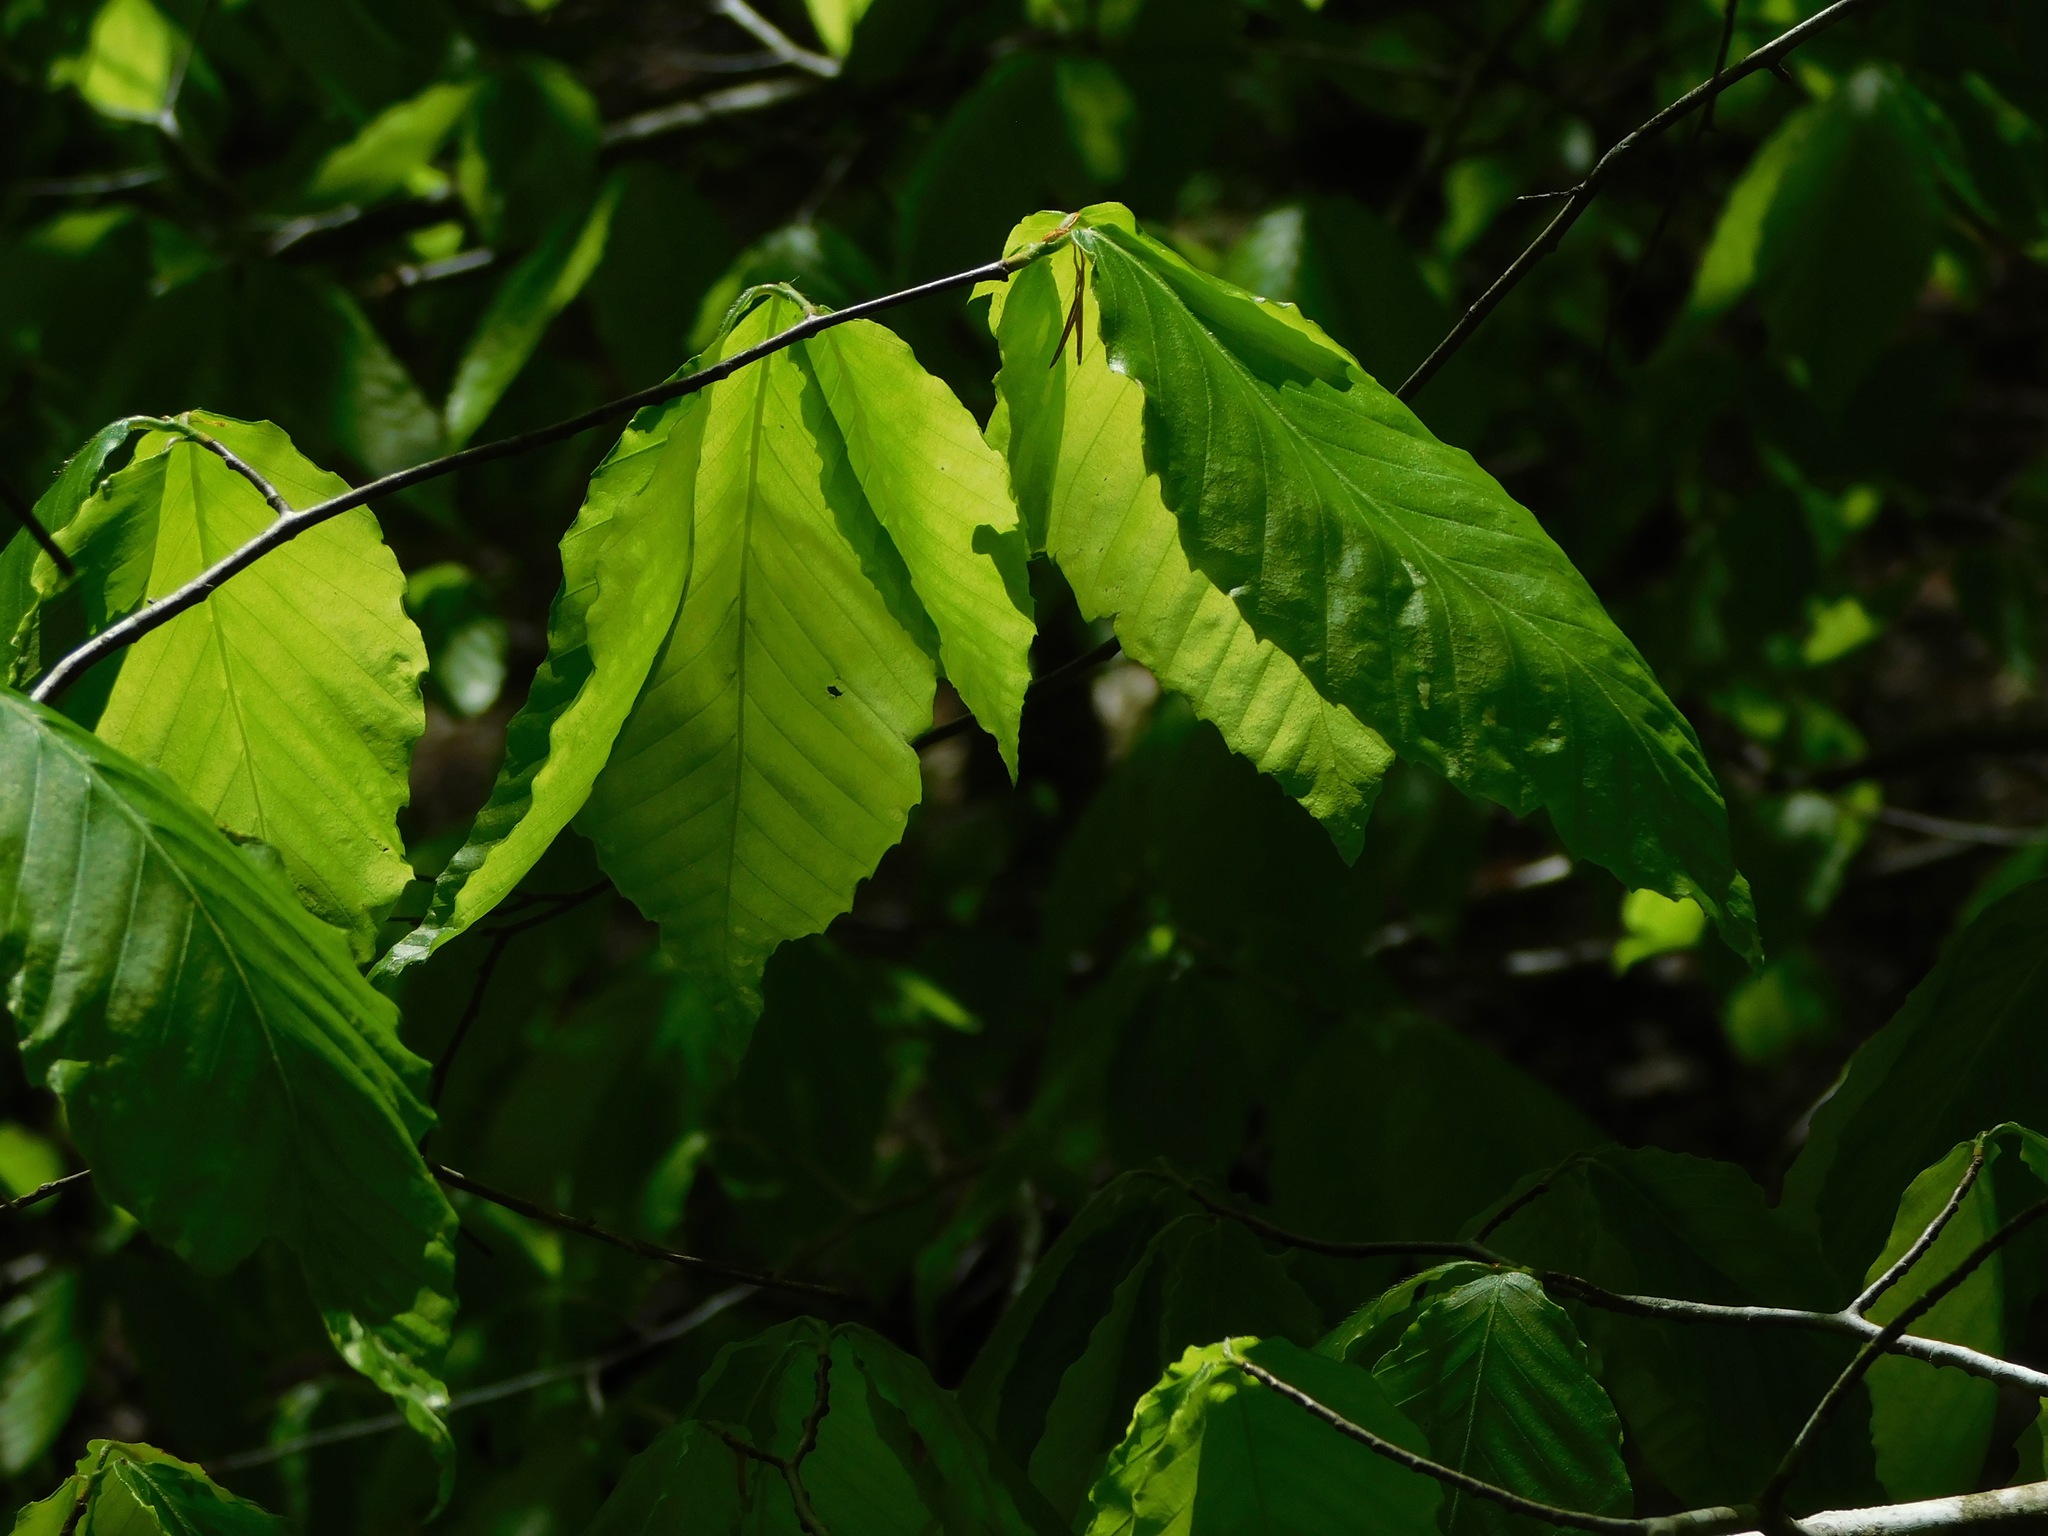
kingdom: Plantae
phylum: Tracheophyta
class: Magnoliopsida
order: Fagales
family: Fagaceae
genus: Fagus
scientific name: Fagus grandifolia
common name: American beech
